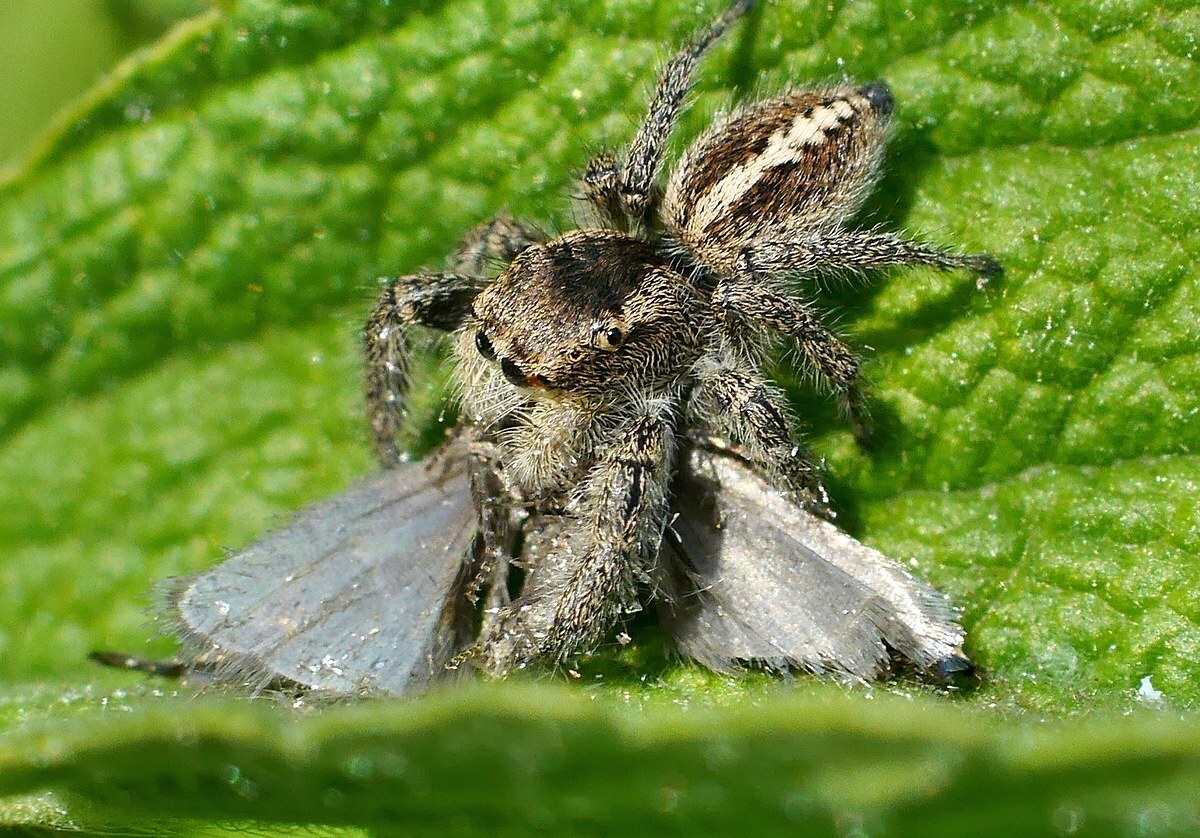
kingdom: Animalia
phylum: Arthropoda
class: Arachnida
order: Araneae
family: Salticidae
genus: Pellenes
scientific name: Pellenes seriatus
